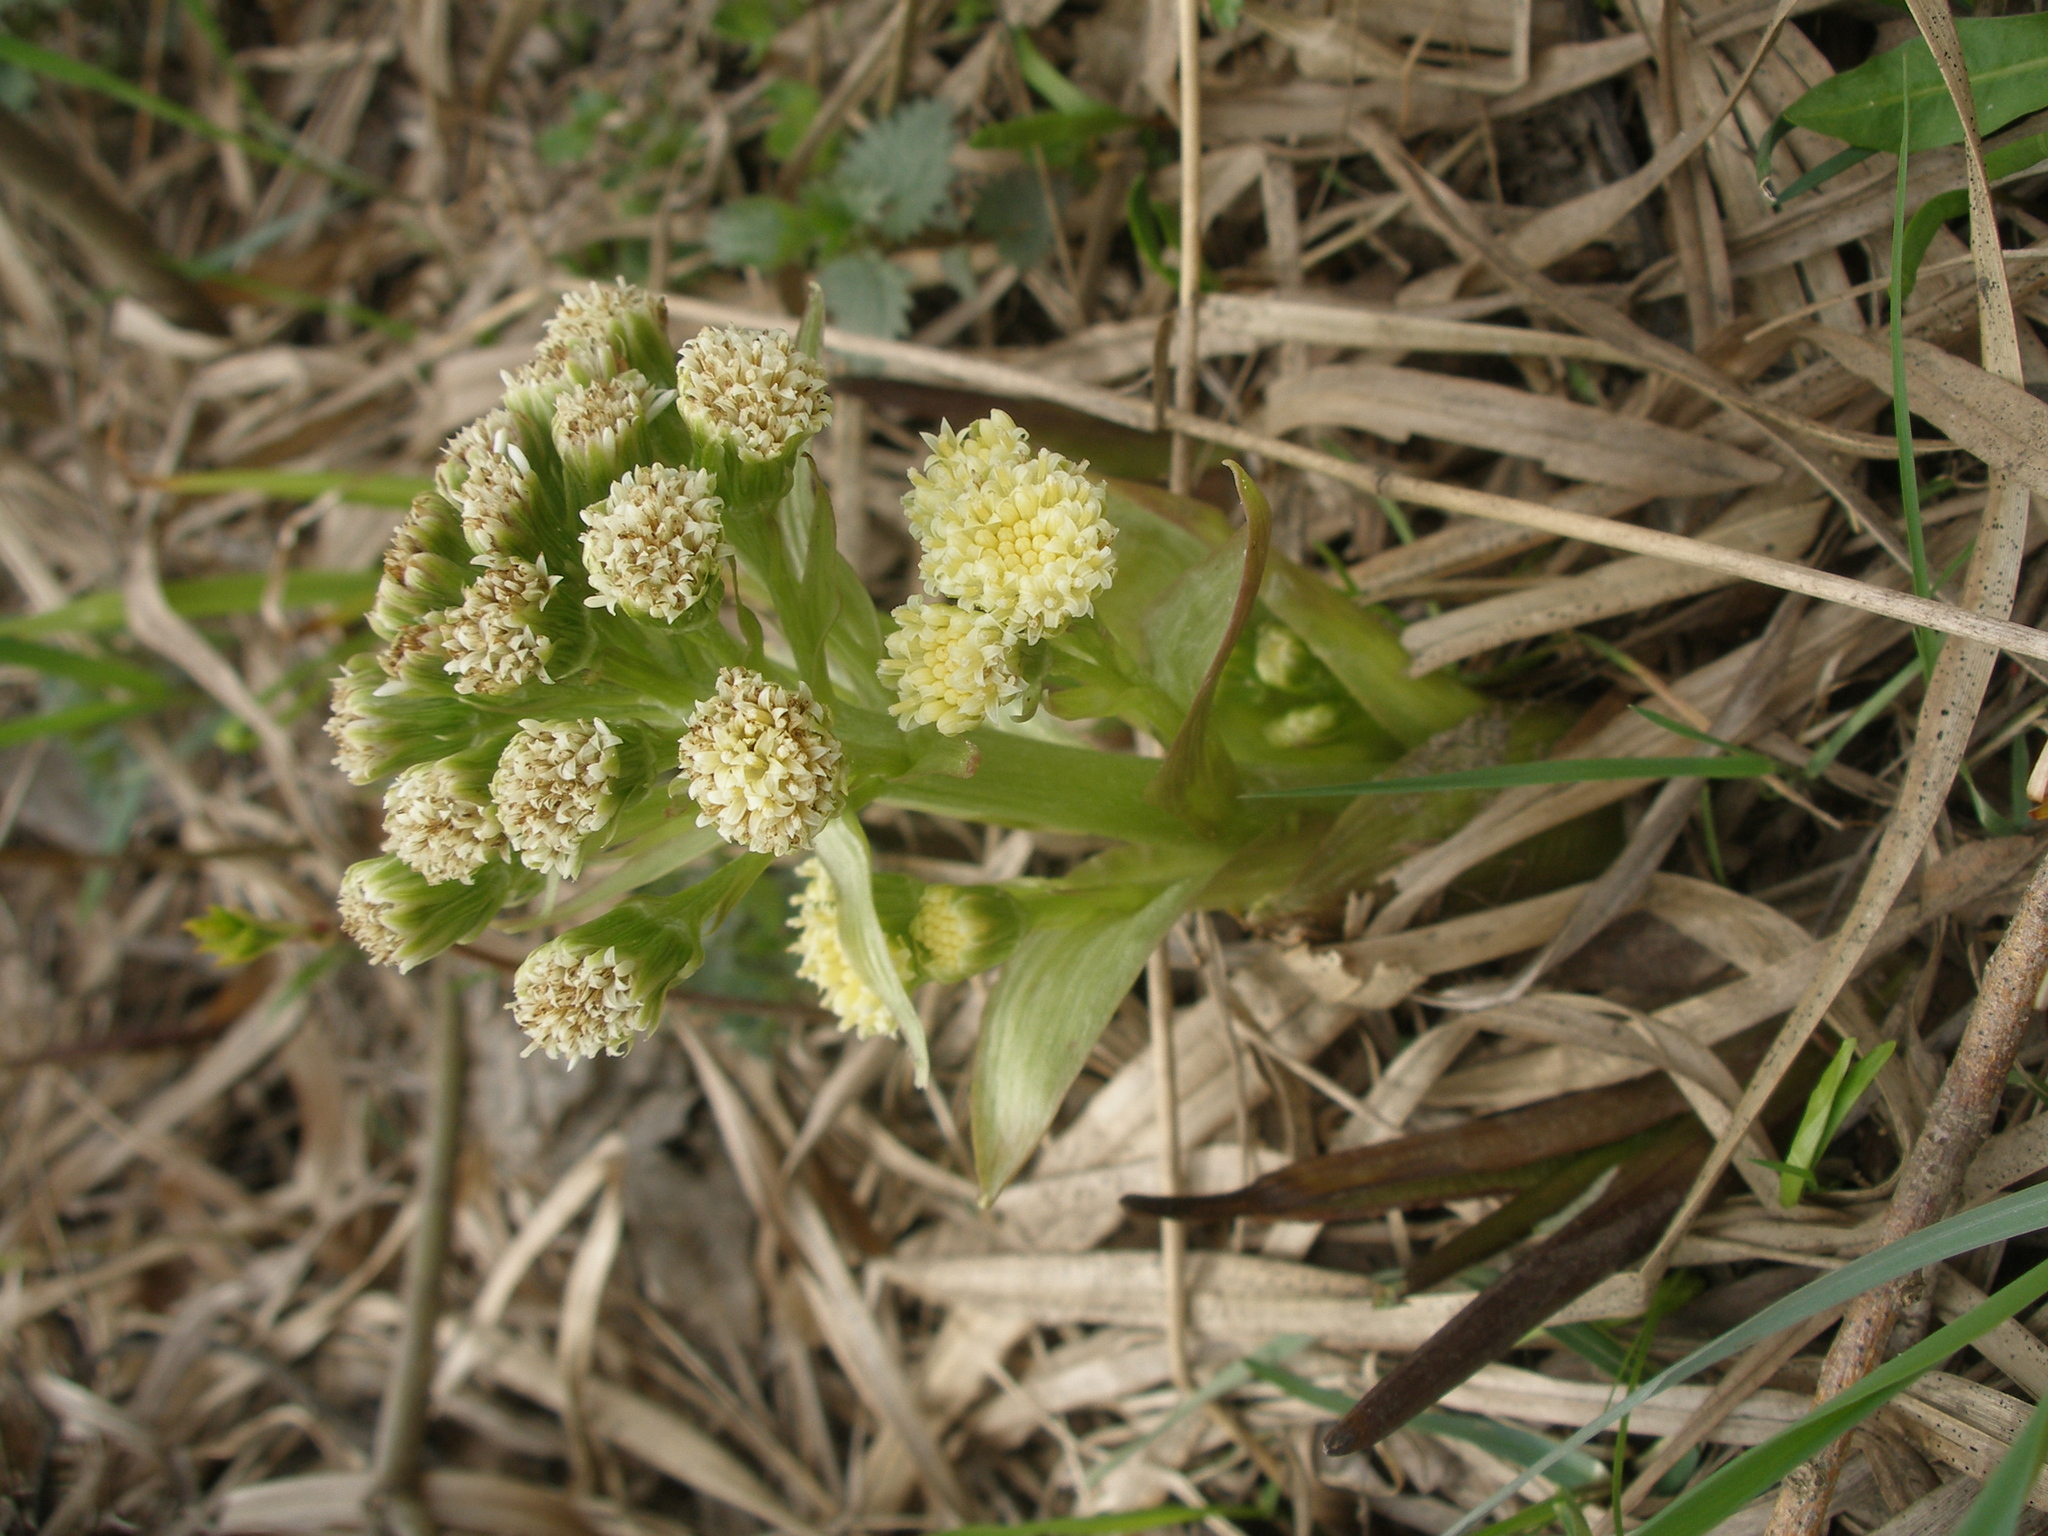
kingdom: Plantae
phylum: Tracheophyta
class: Magnoliopsida
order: Asterales
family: Asteraceae
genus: Petasites
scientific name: Petasites spurius
